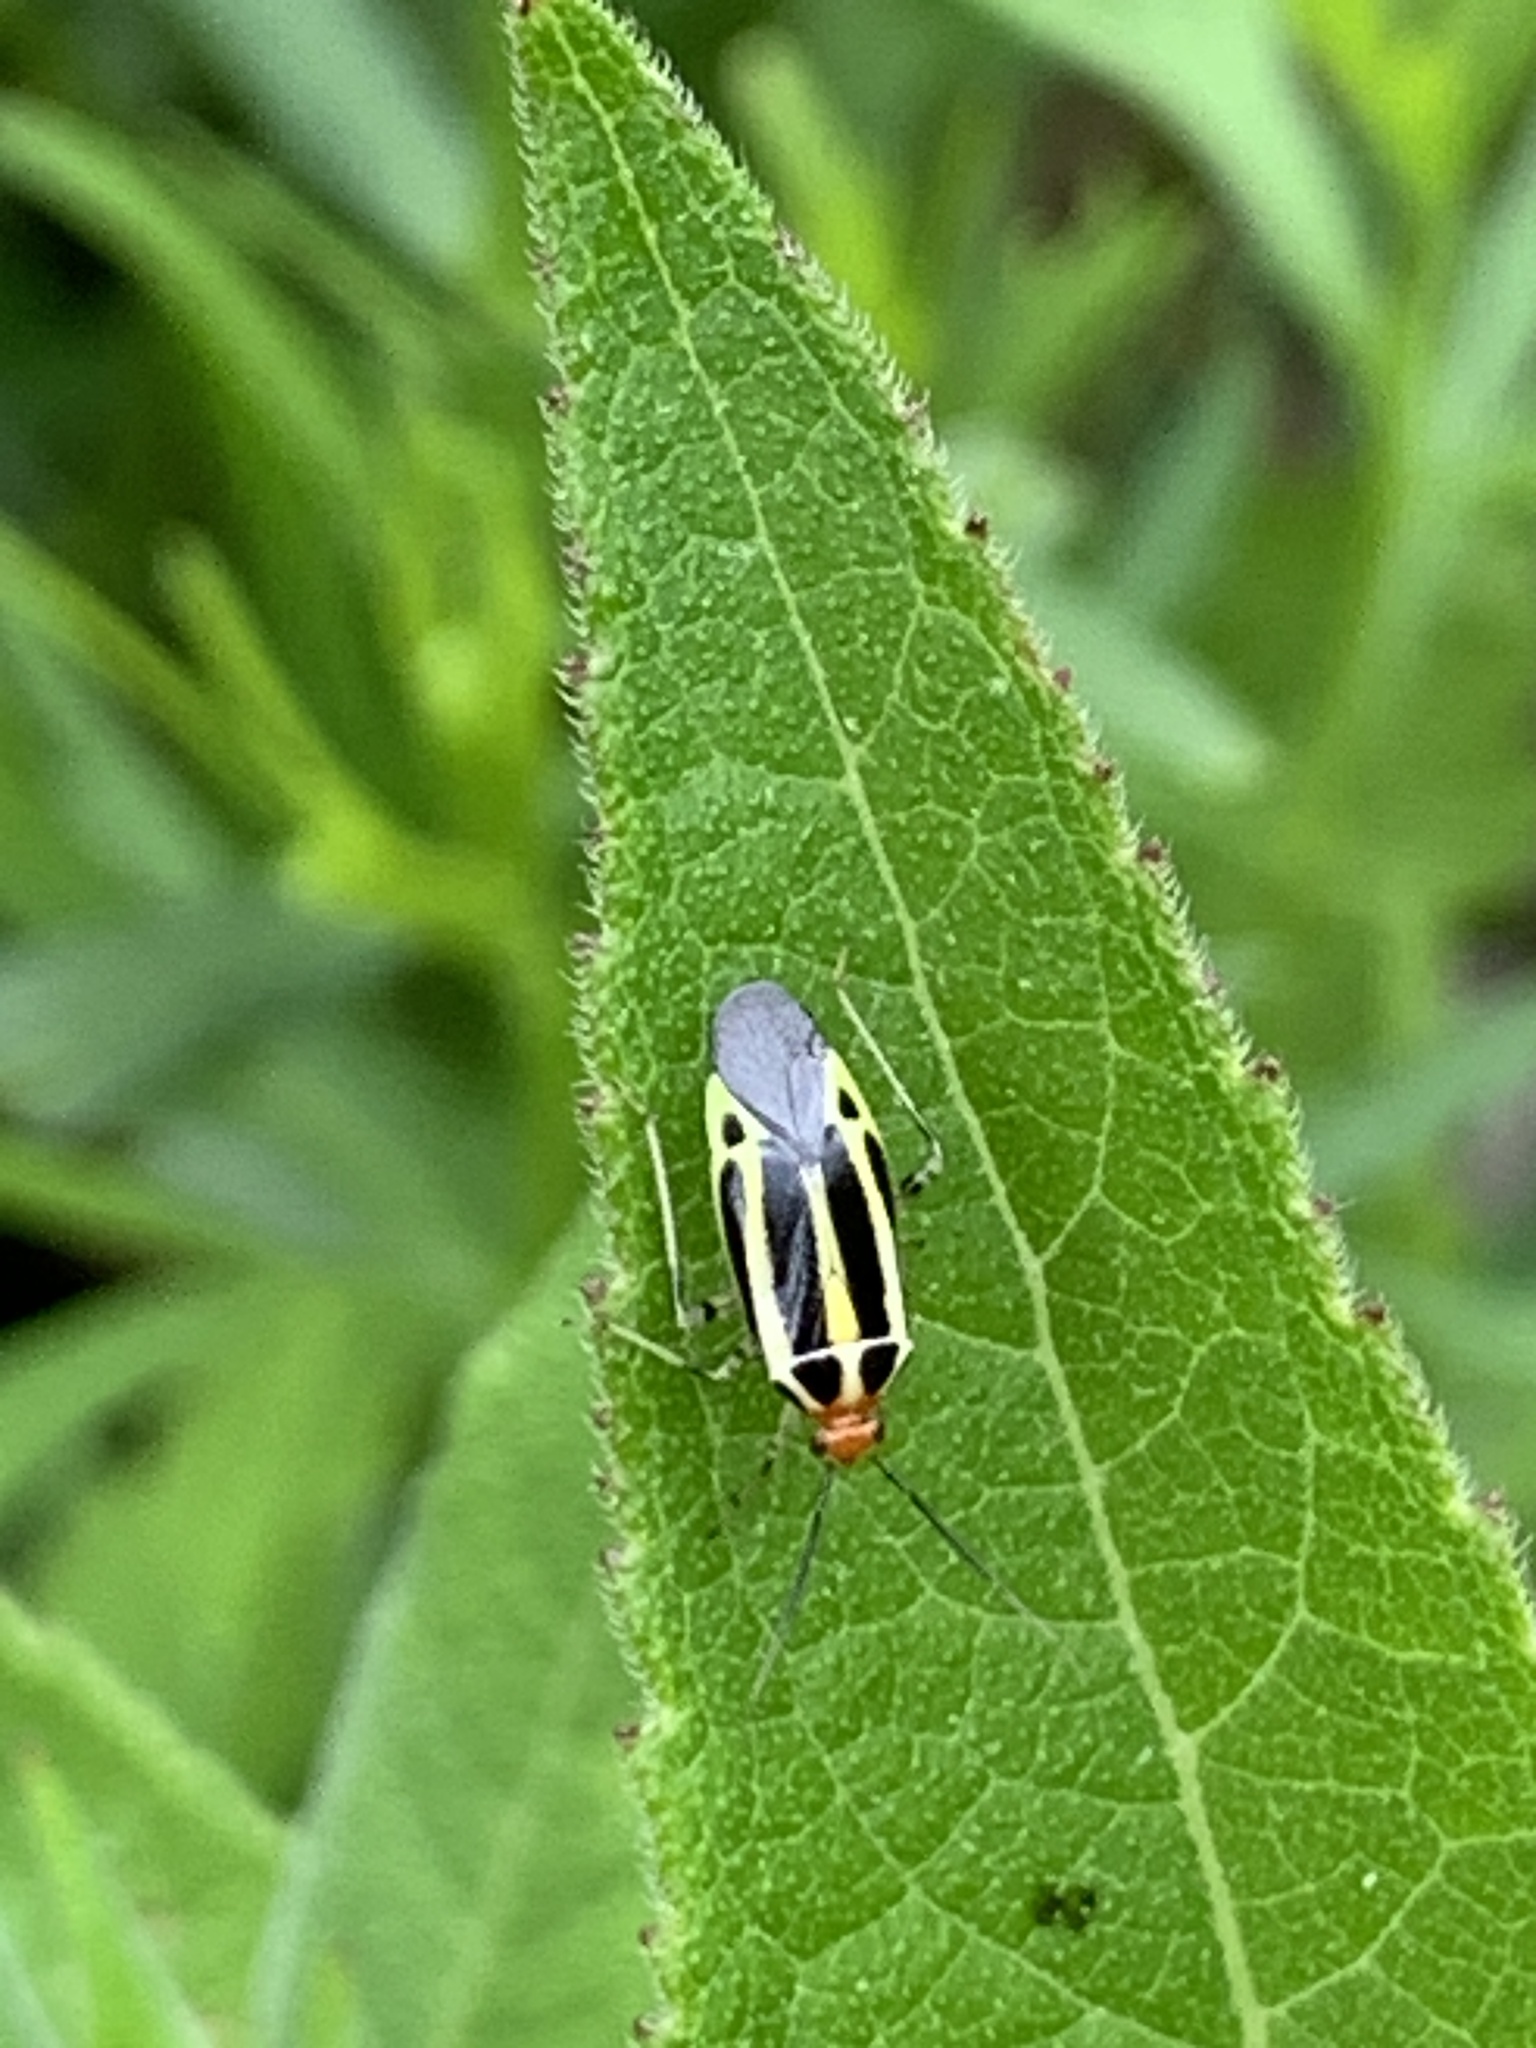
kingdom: Animalia
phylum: Arthropoda
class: Insecta
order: Hemiptera
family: Miridae
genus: Poecilocapsus
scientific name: Poecilocapsus lineatus
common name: Four-lined plant bug
